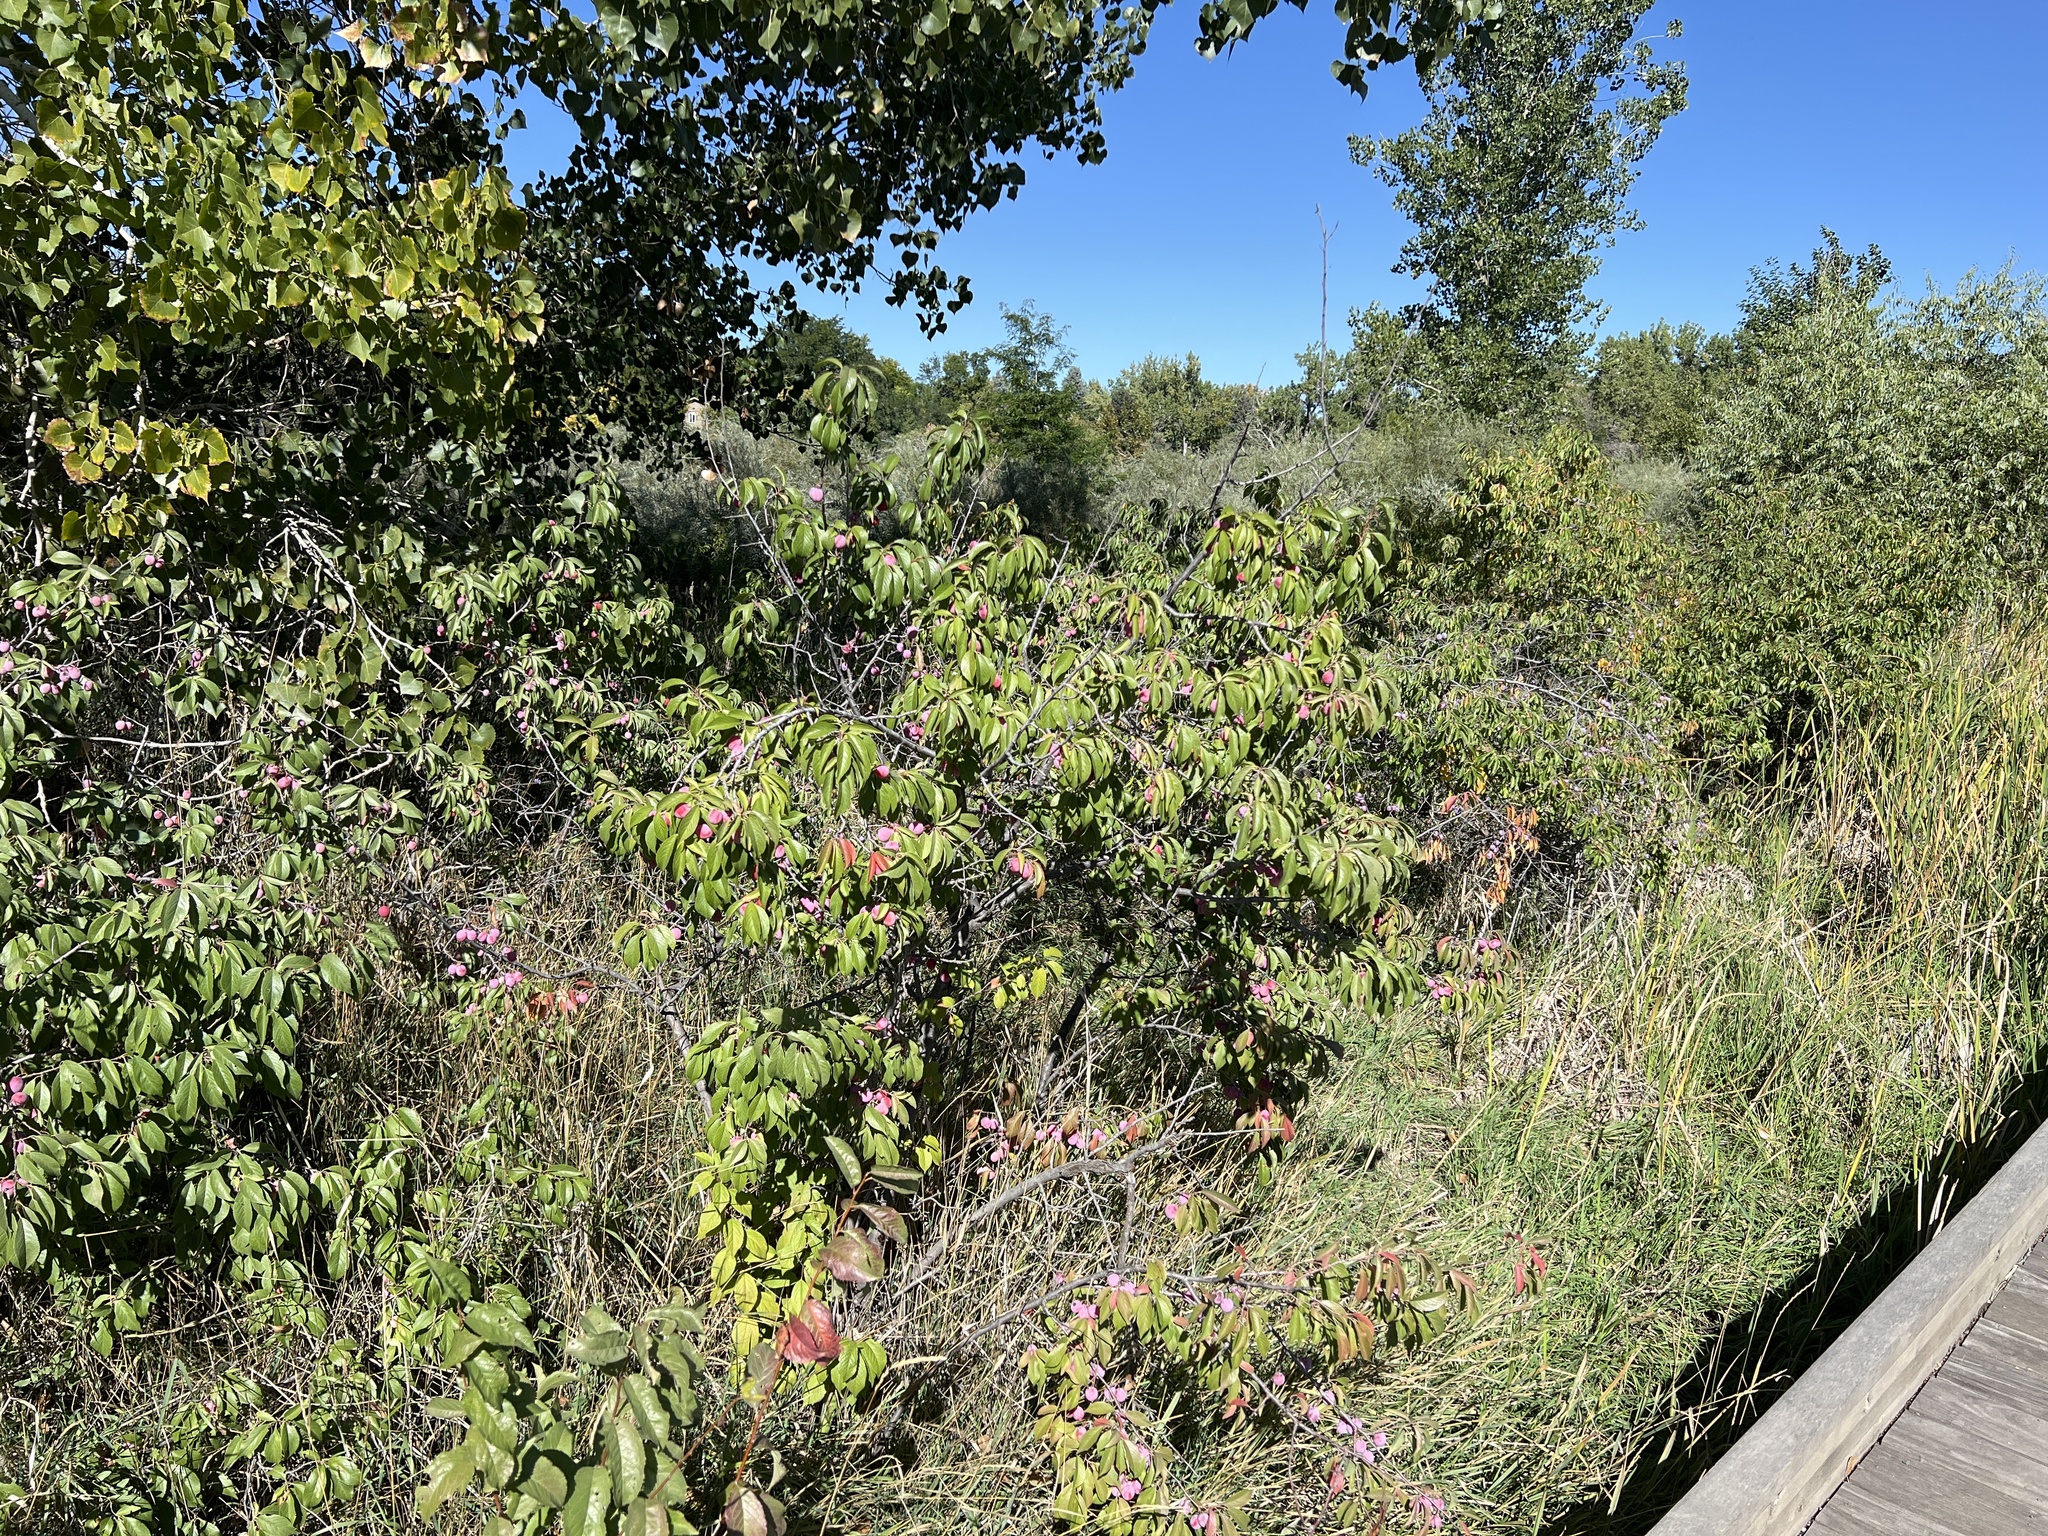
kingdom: Plantae
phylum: Tracheophyta
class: Magnoliopsida
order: Rosales
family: Rosaceae
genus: Prunus
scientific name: Prunus americana
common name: American plum
